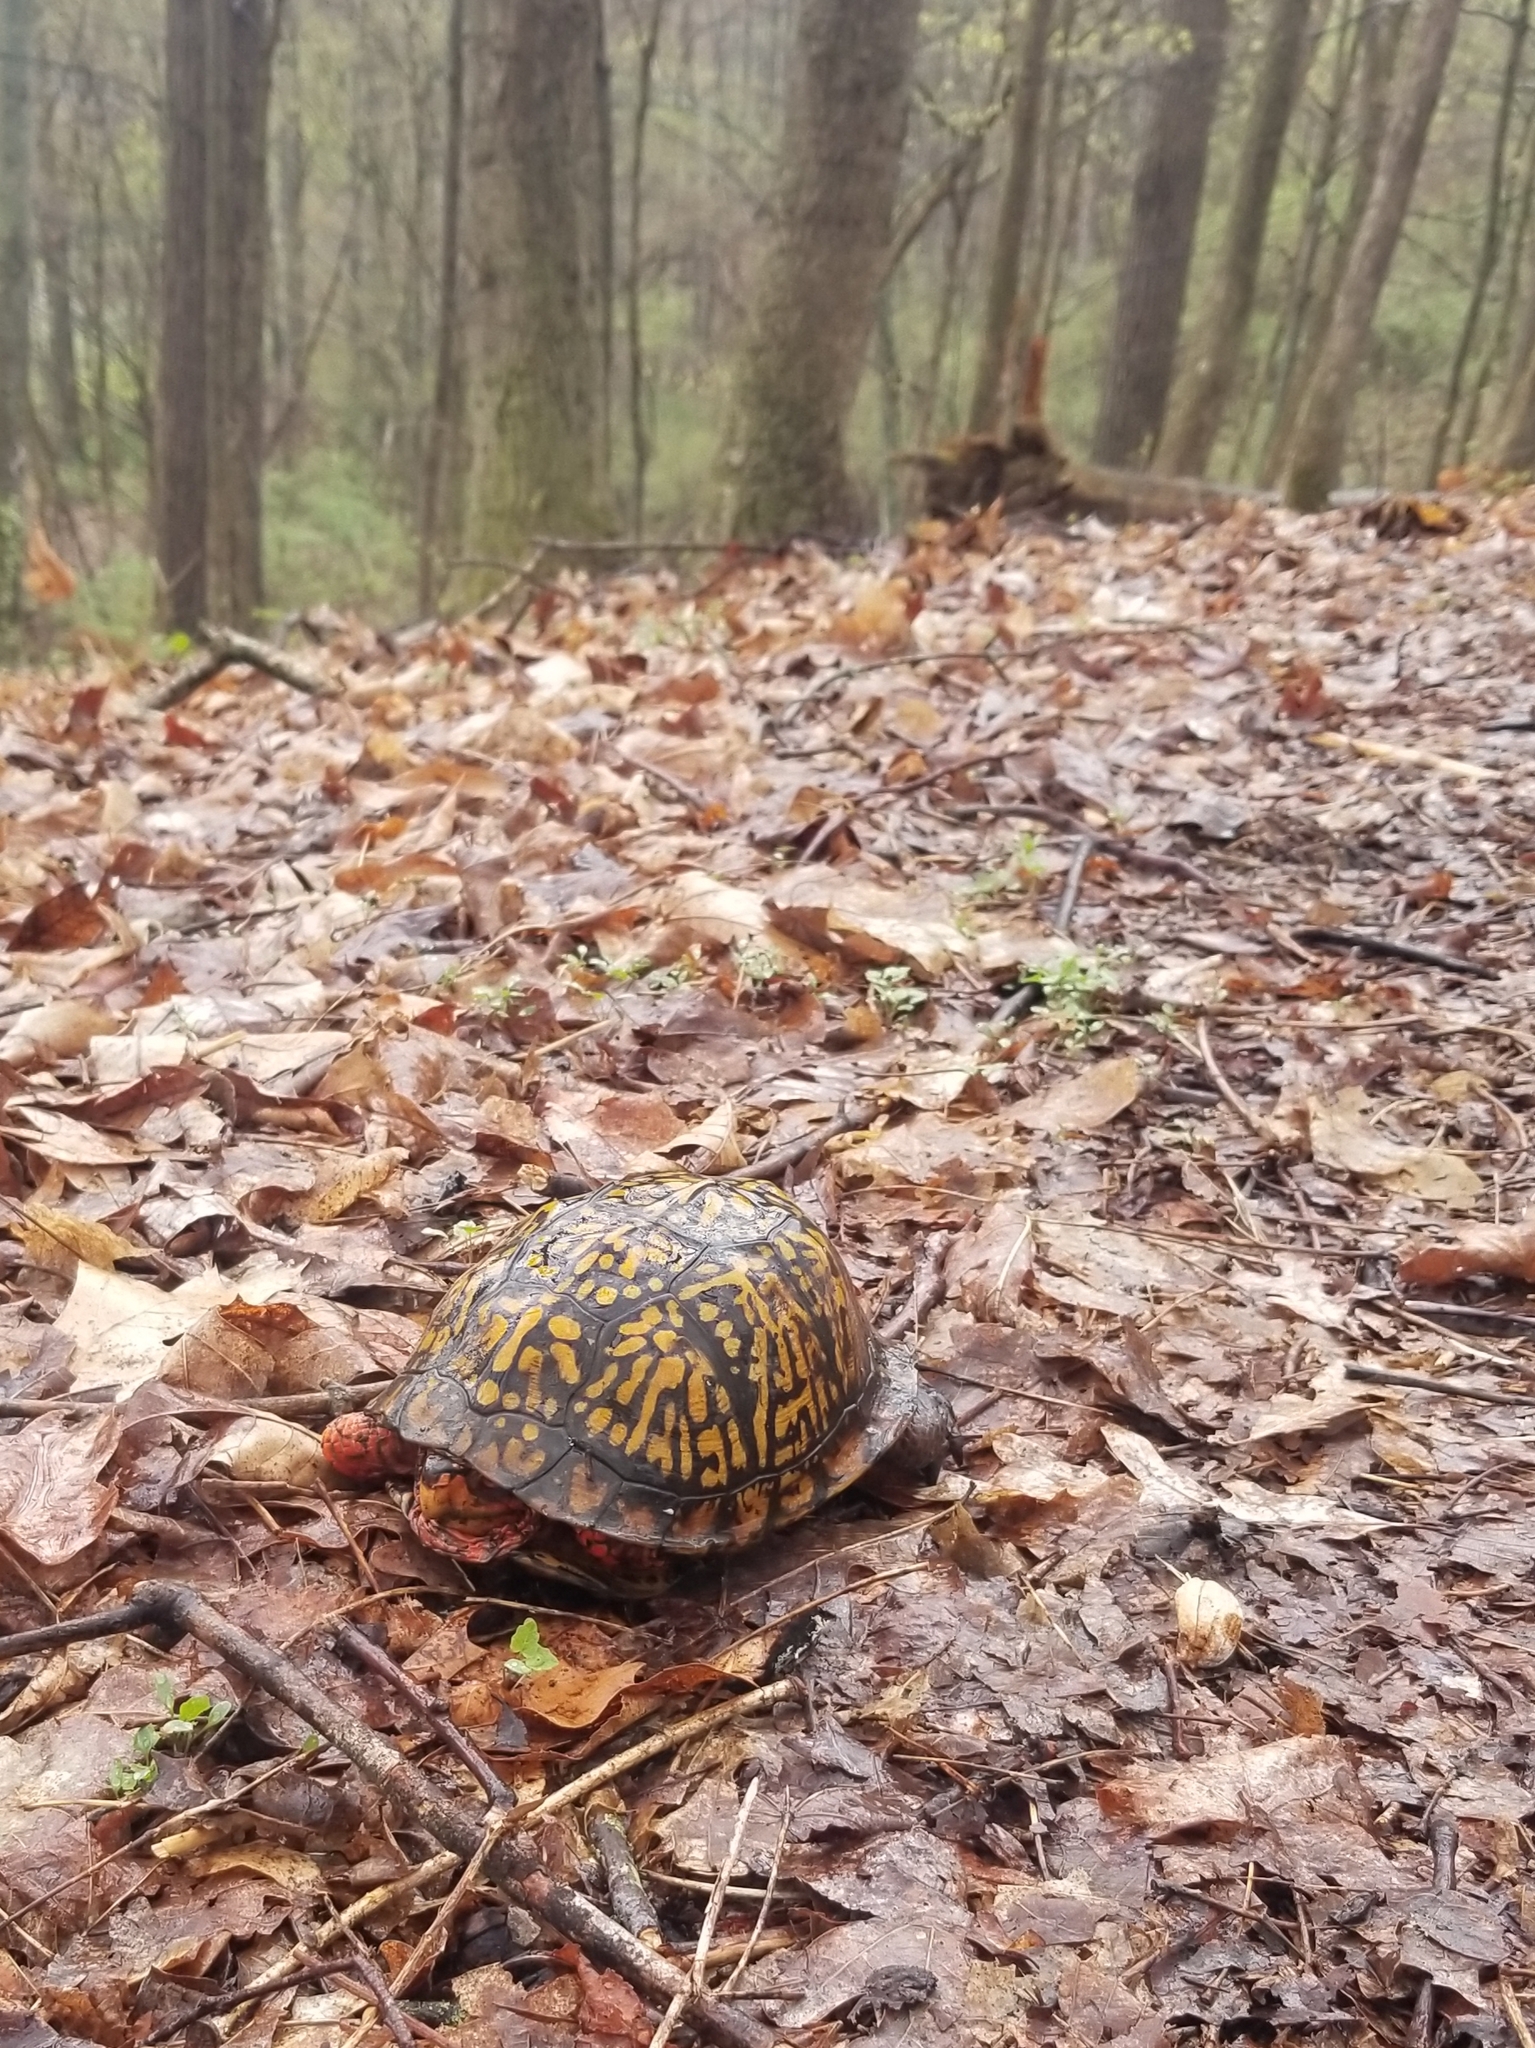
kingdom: Animalia
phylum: Chordata
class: Testudines
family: Emydidae
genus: Terrapene
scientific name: Terrapene carolina
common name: Common box turtle
